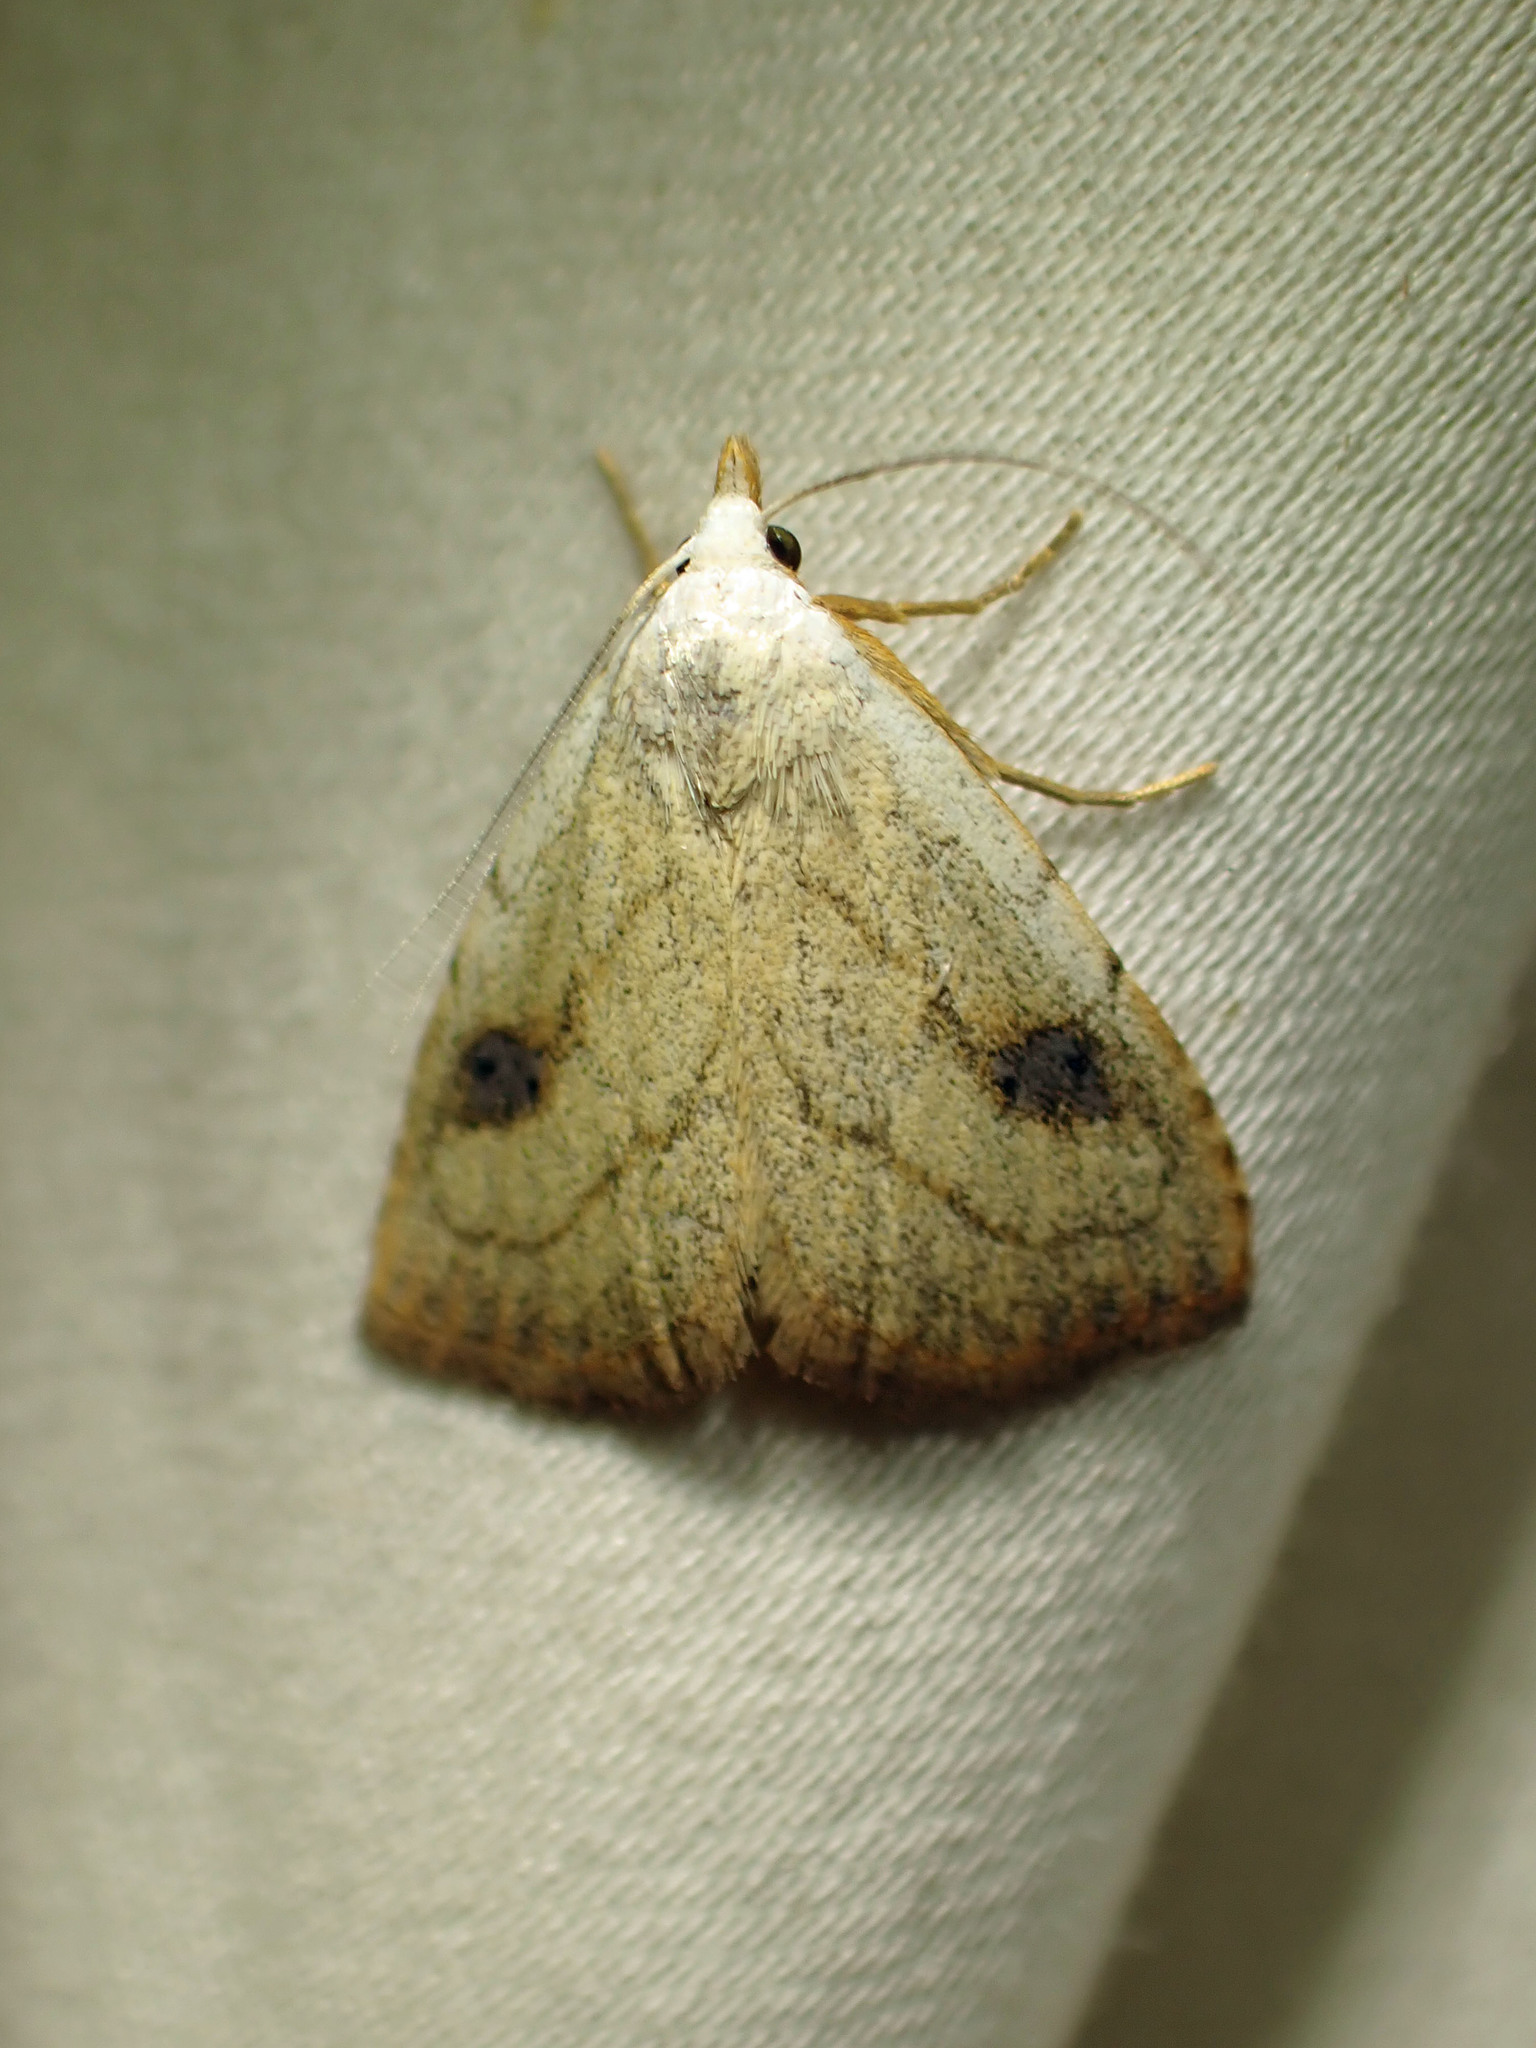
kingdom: Animalia
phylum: Arthropoda
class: Insecta
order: Lepidoptera
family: Erebidae
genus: Rivula
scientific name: Rivula propinqualis
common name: Spotted grass moth
